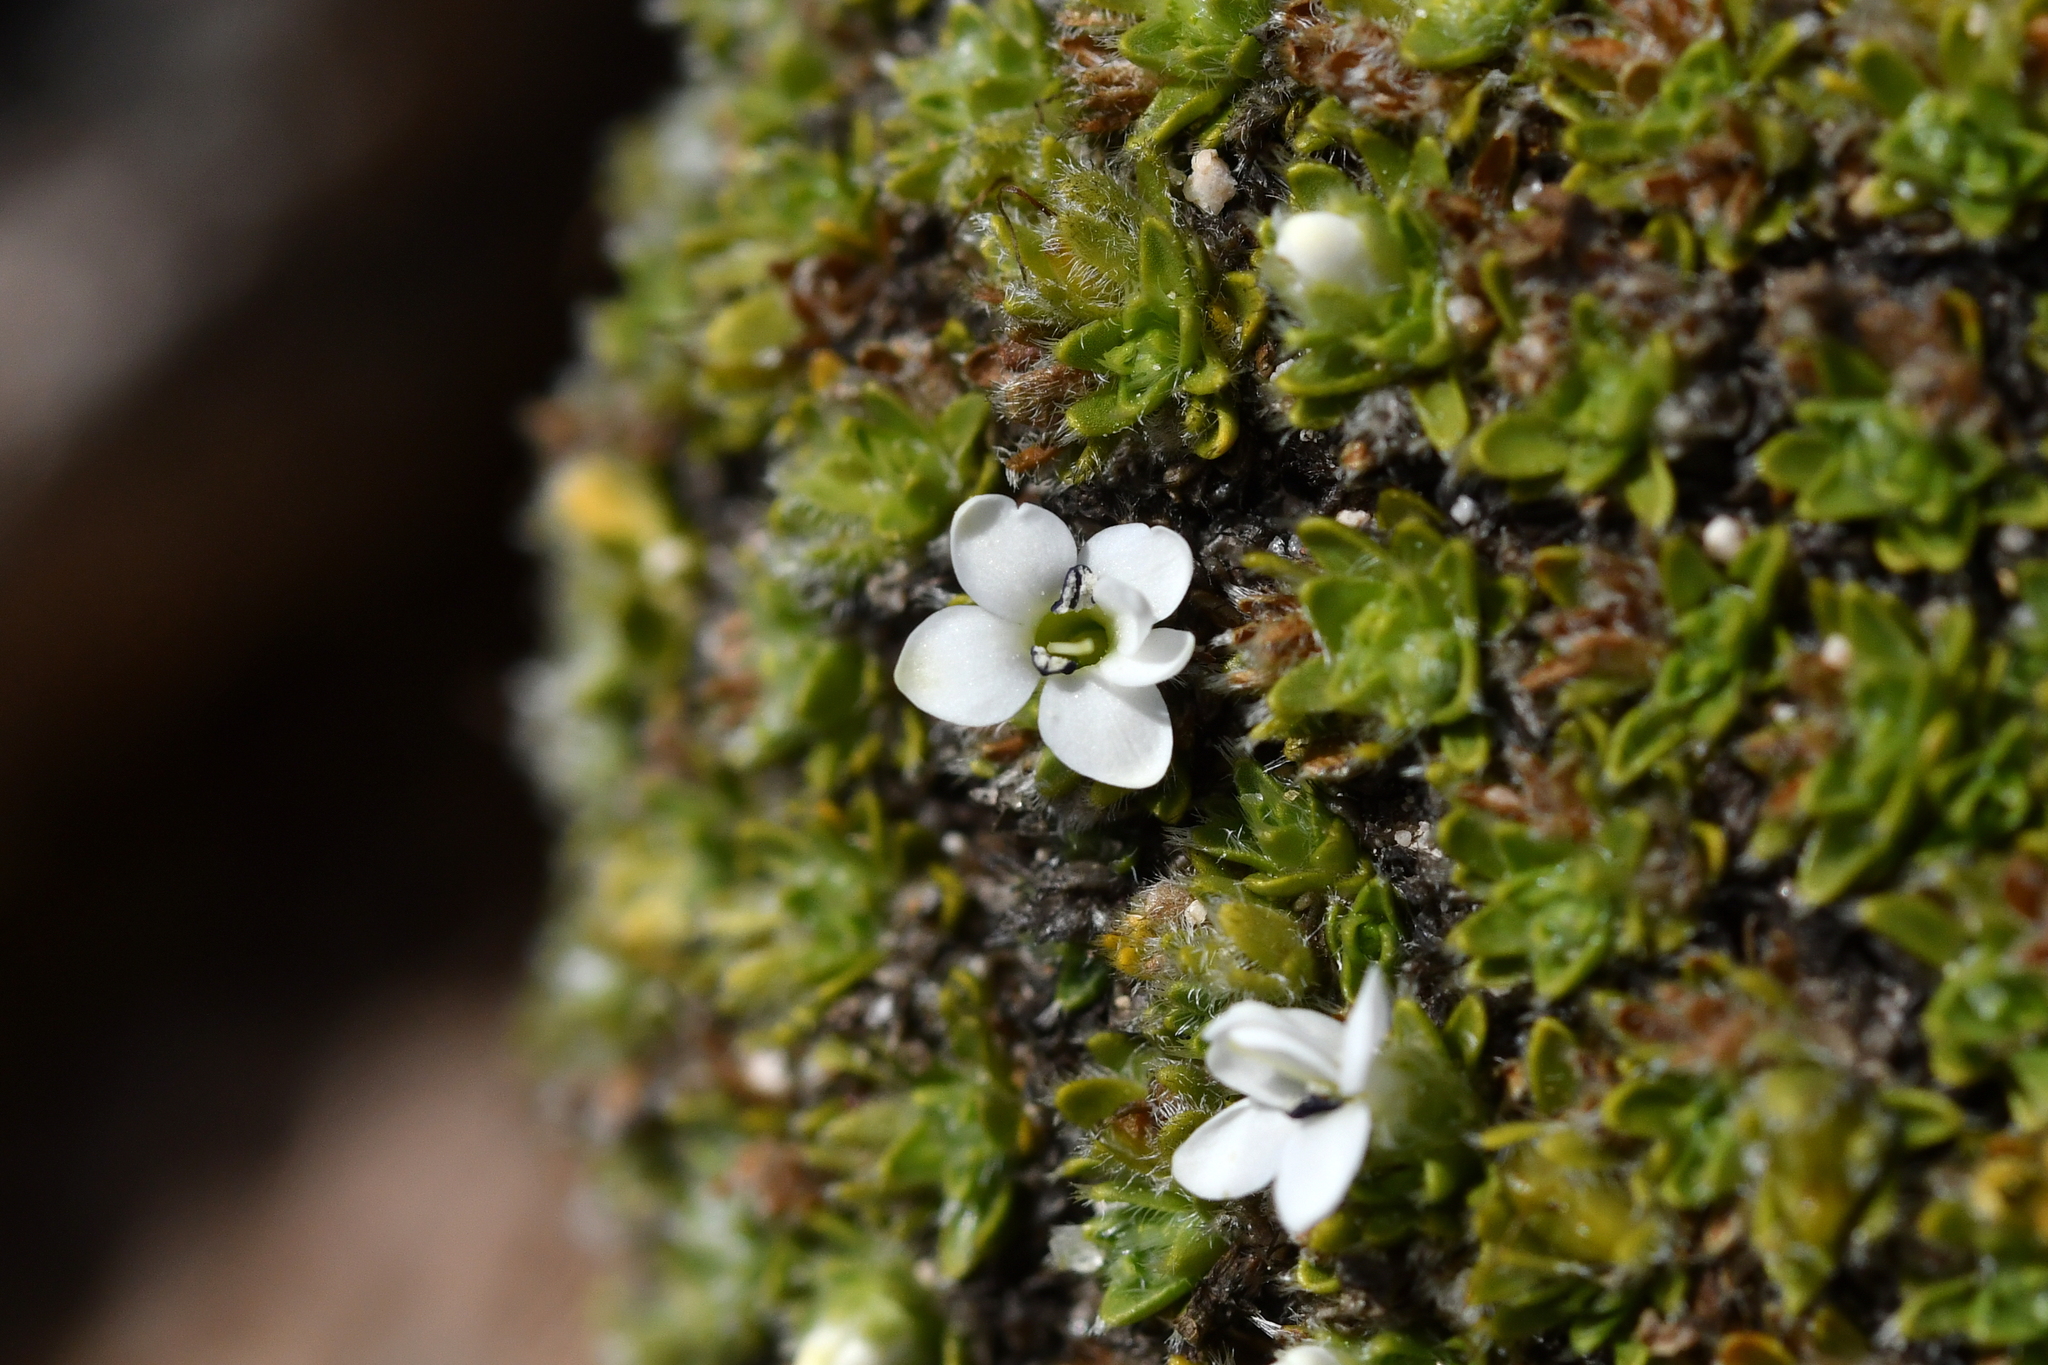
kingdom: Plantae
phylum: Tracheophyta
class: Magnoliopsida
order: Lamiales
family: Plantaginaceae
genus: Veronica
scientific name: Veronica ciliolata
